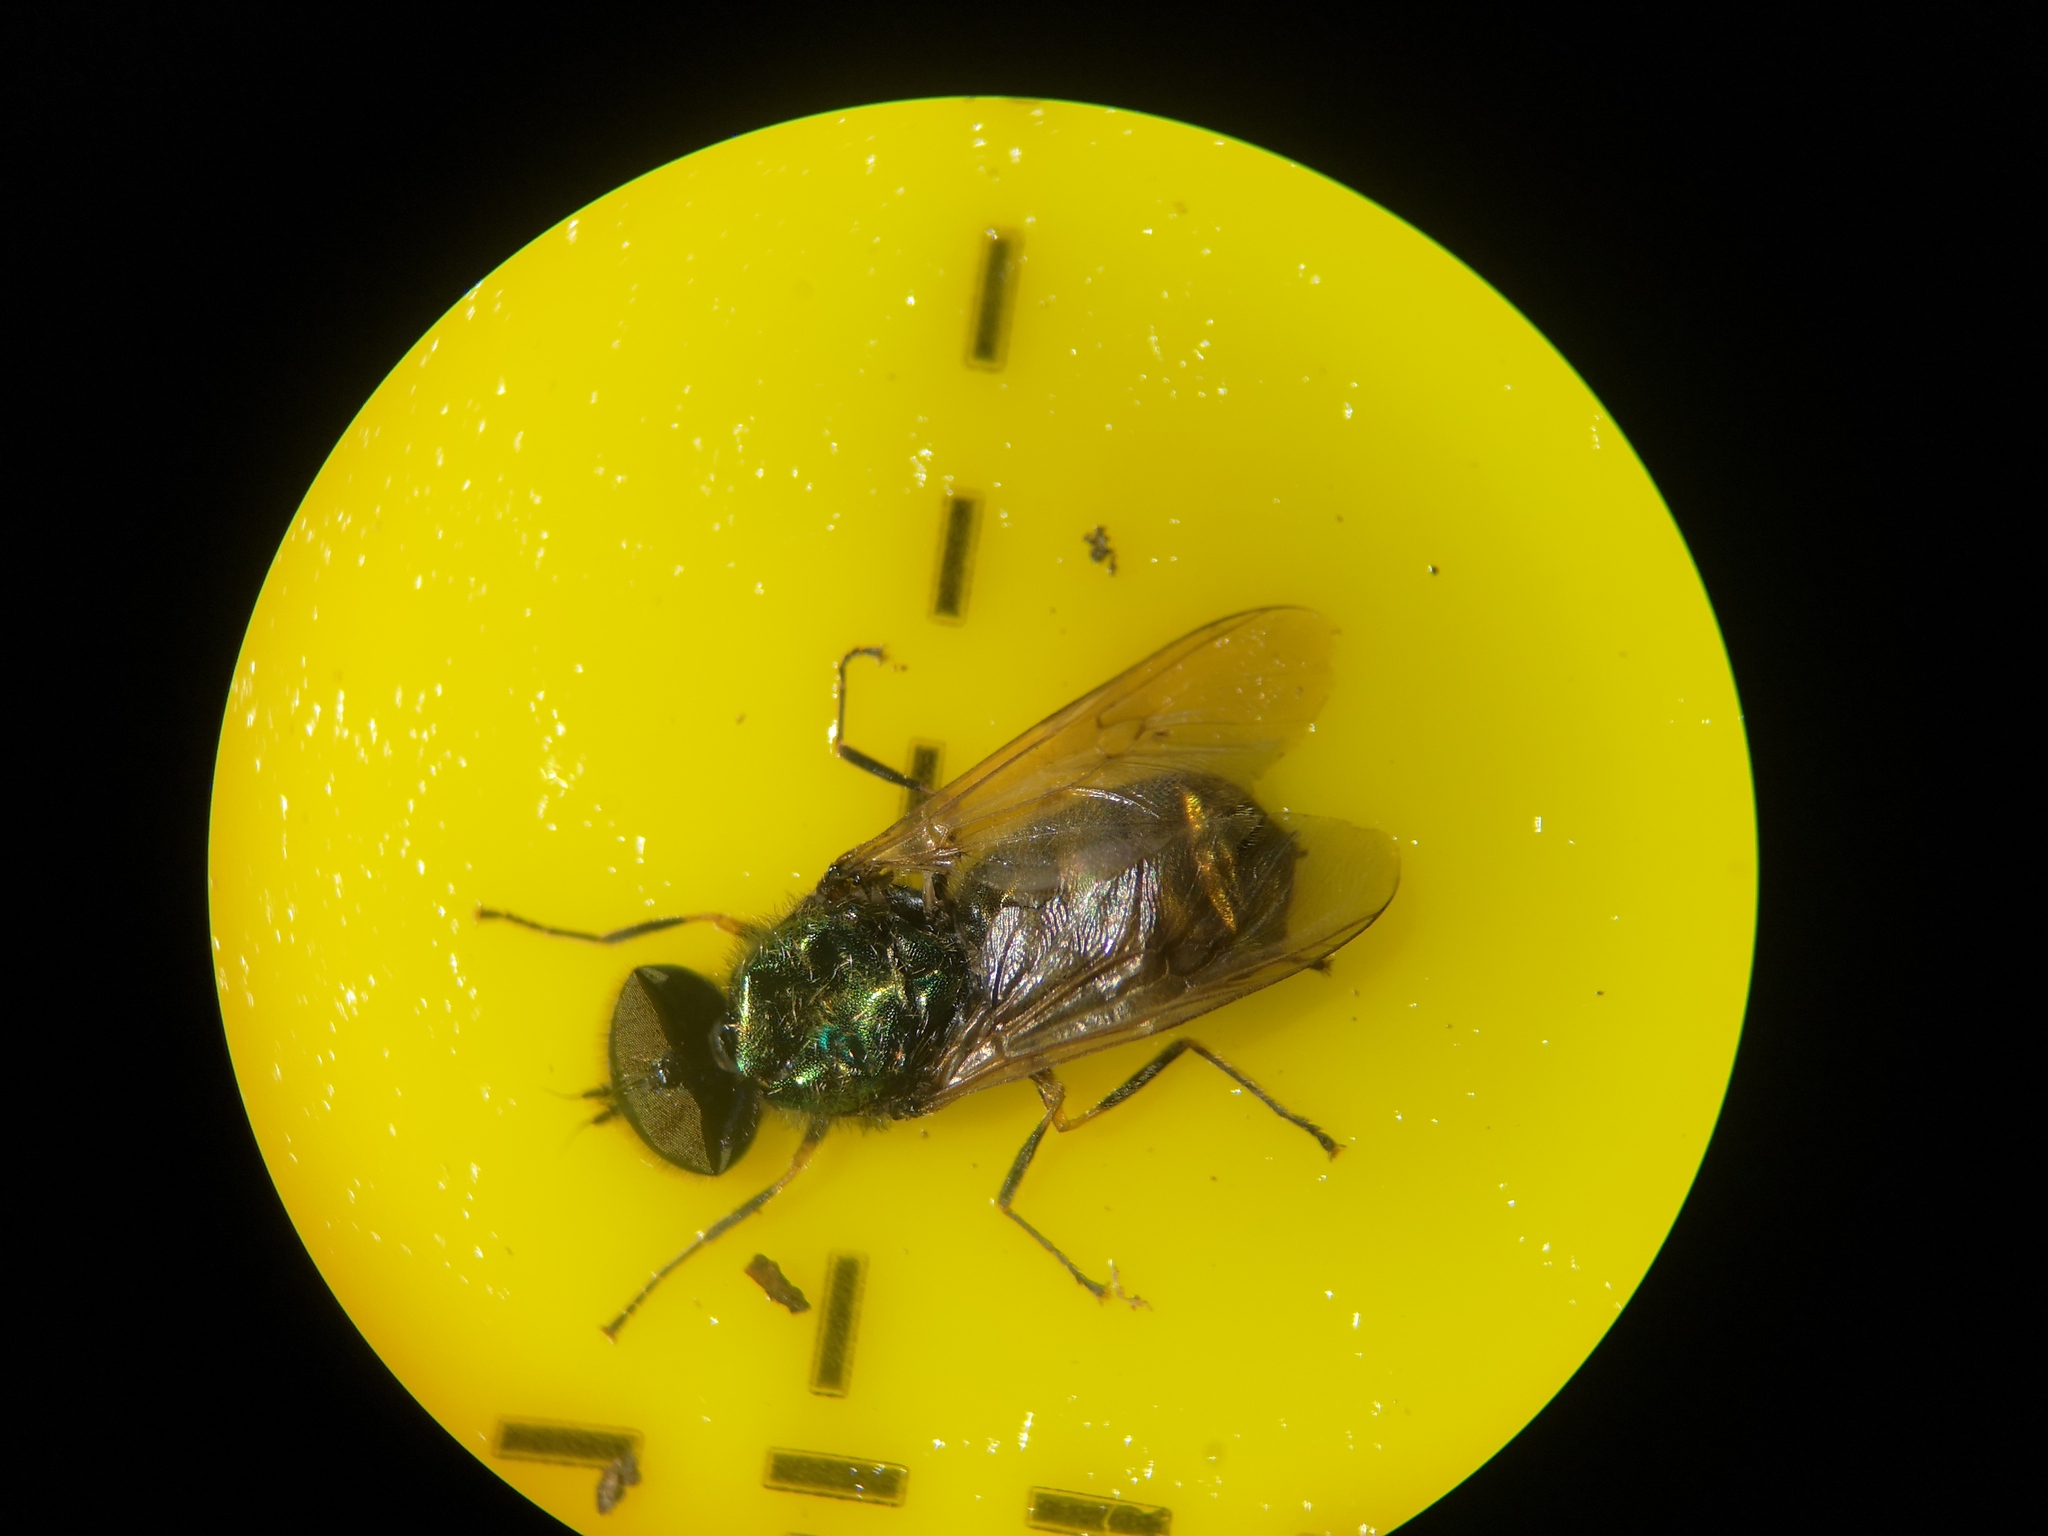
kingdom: Animalia
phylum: Arthropoda
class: Insecta
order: Diptera
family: Stratiomyidae
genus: Chloromyia
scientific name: Chloromyia formosa
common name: Soldier fly
